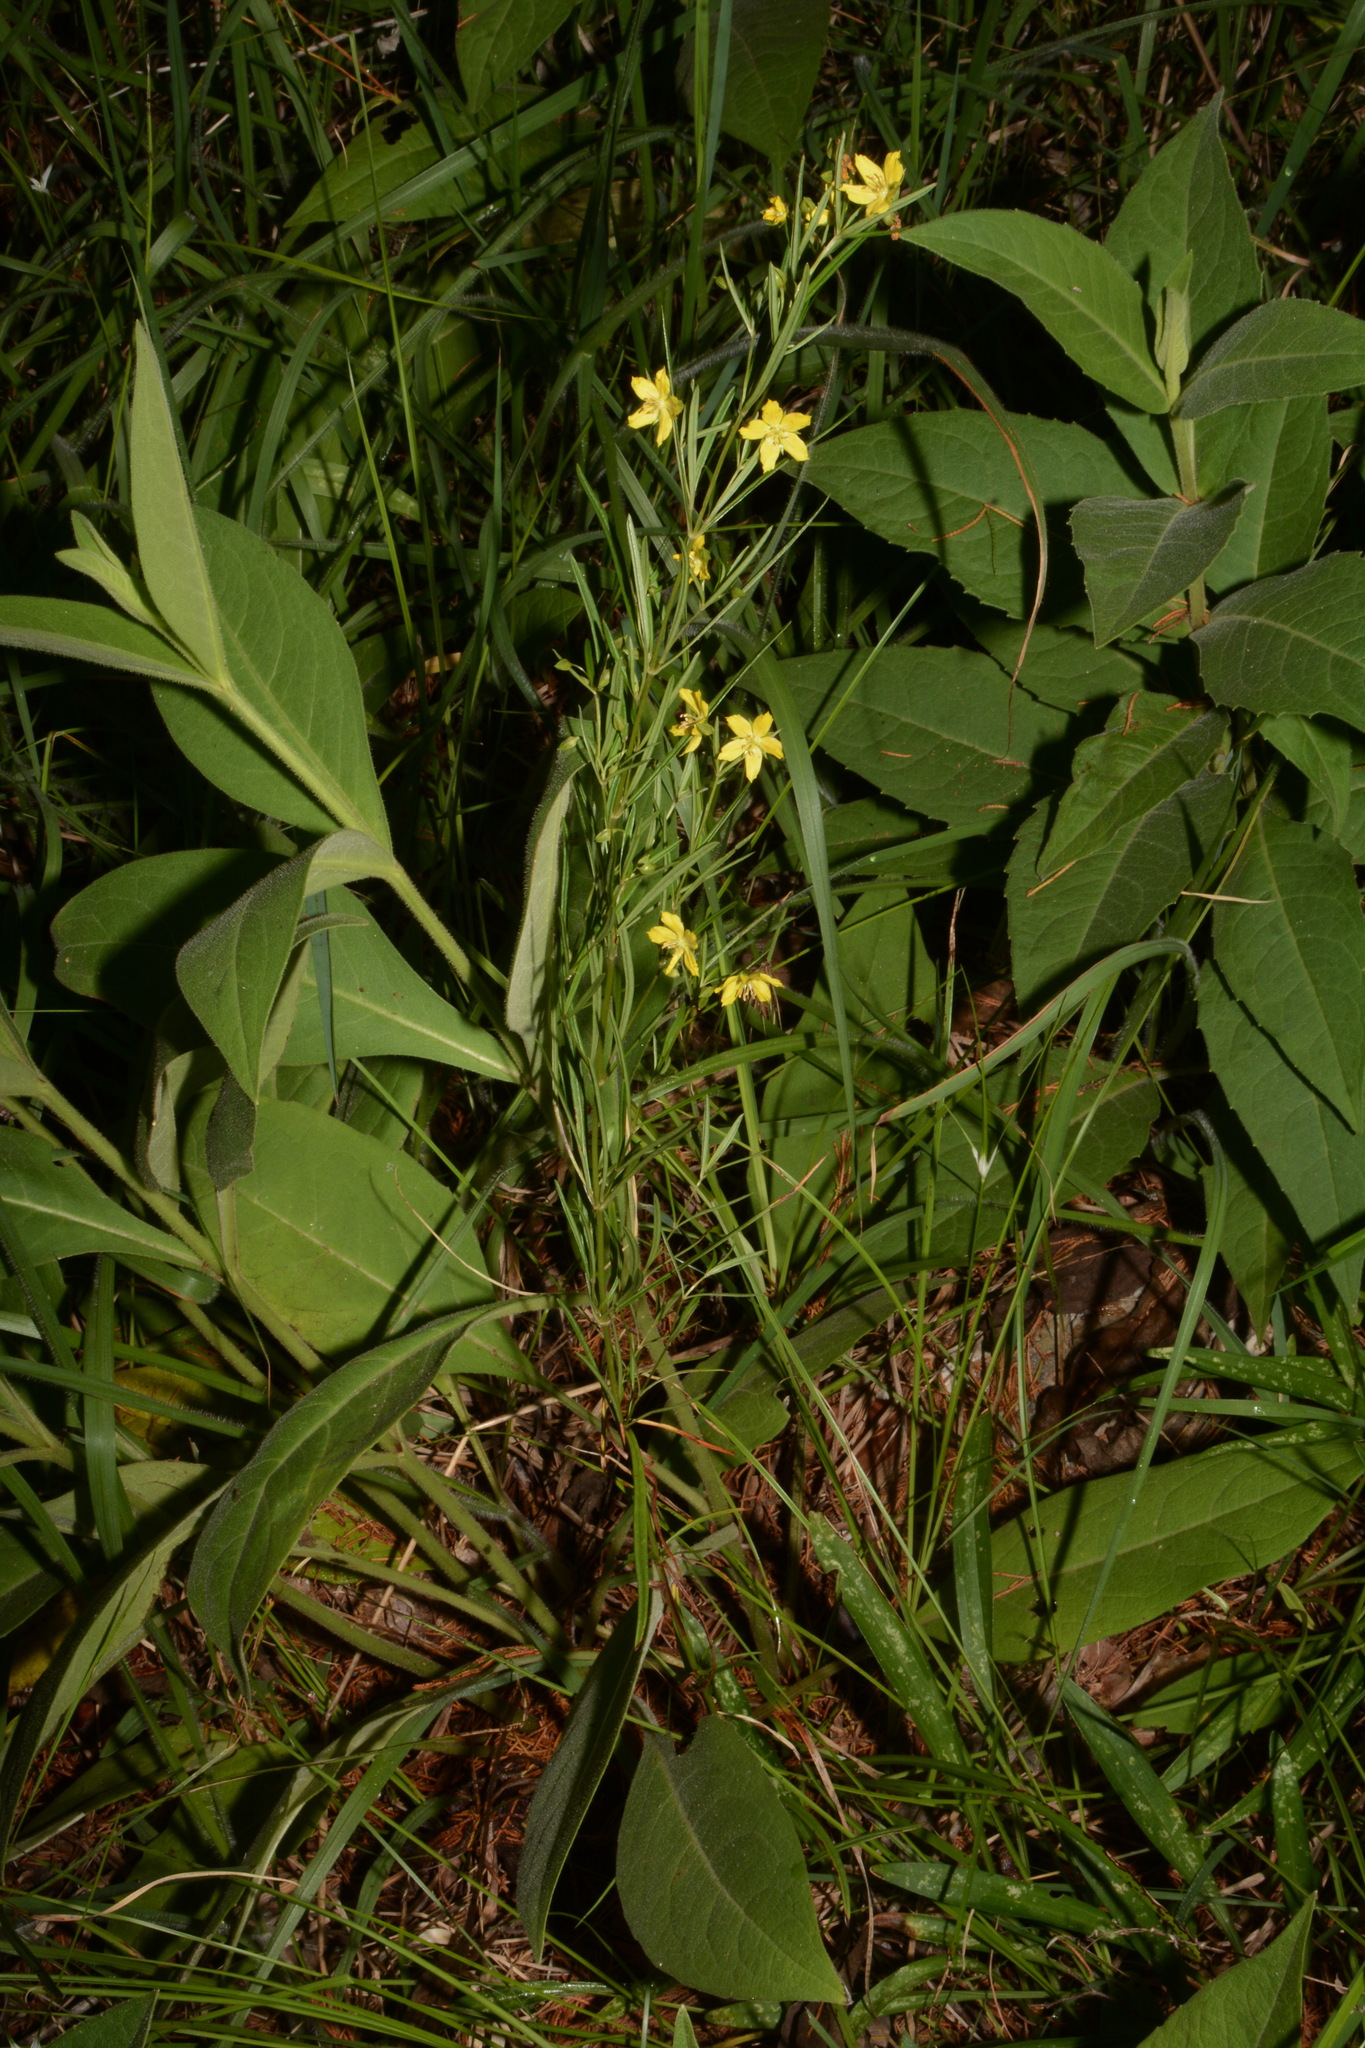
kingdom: Plantae
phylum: Tracheophyta
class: Magnoliopsida
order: Ericales
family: Primulaceae
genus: Lysimachia
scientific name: Lysimachia quadriflora
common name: Four-flowered loosestrife
